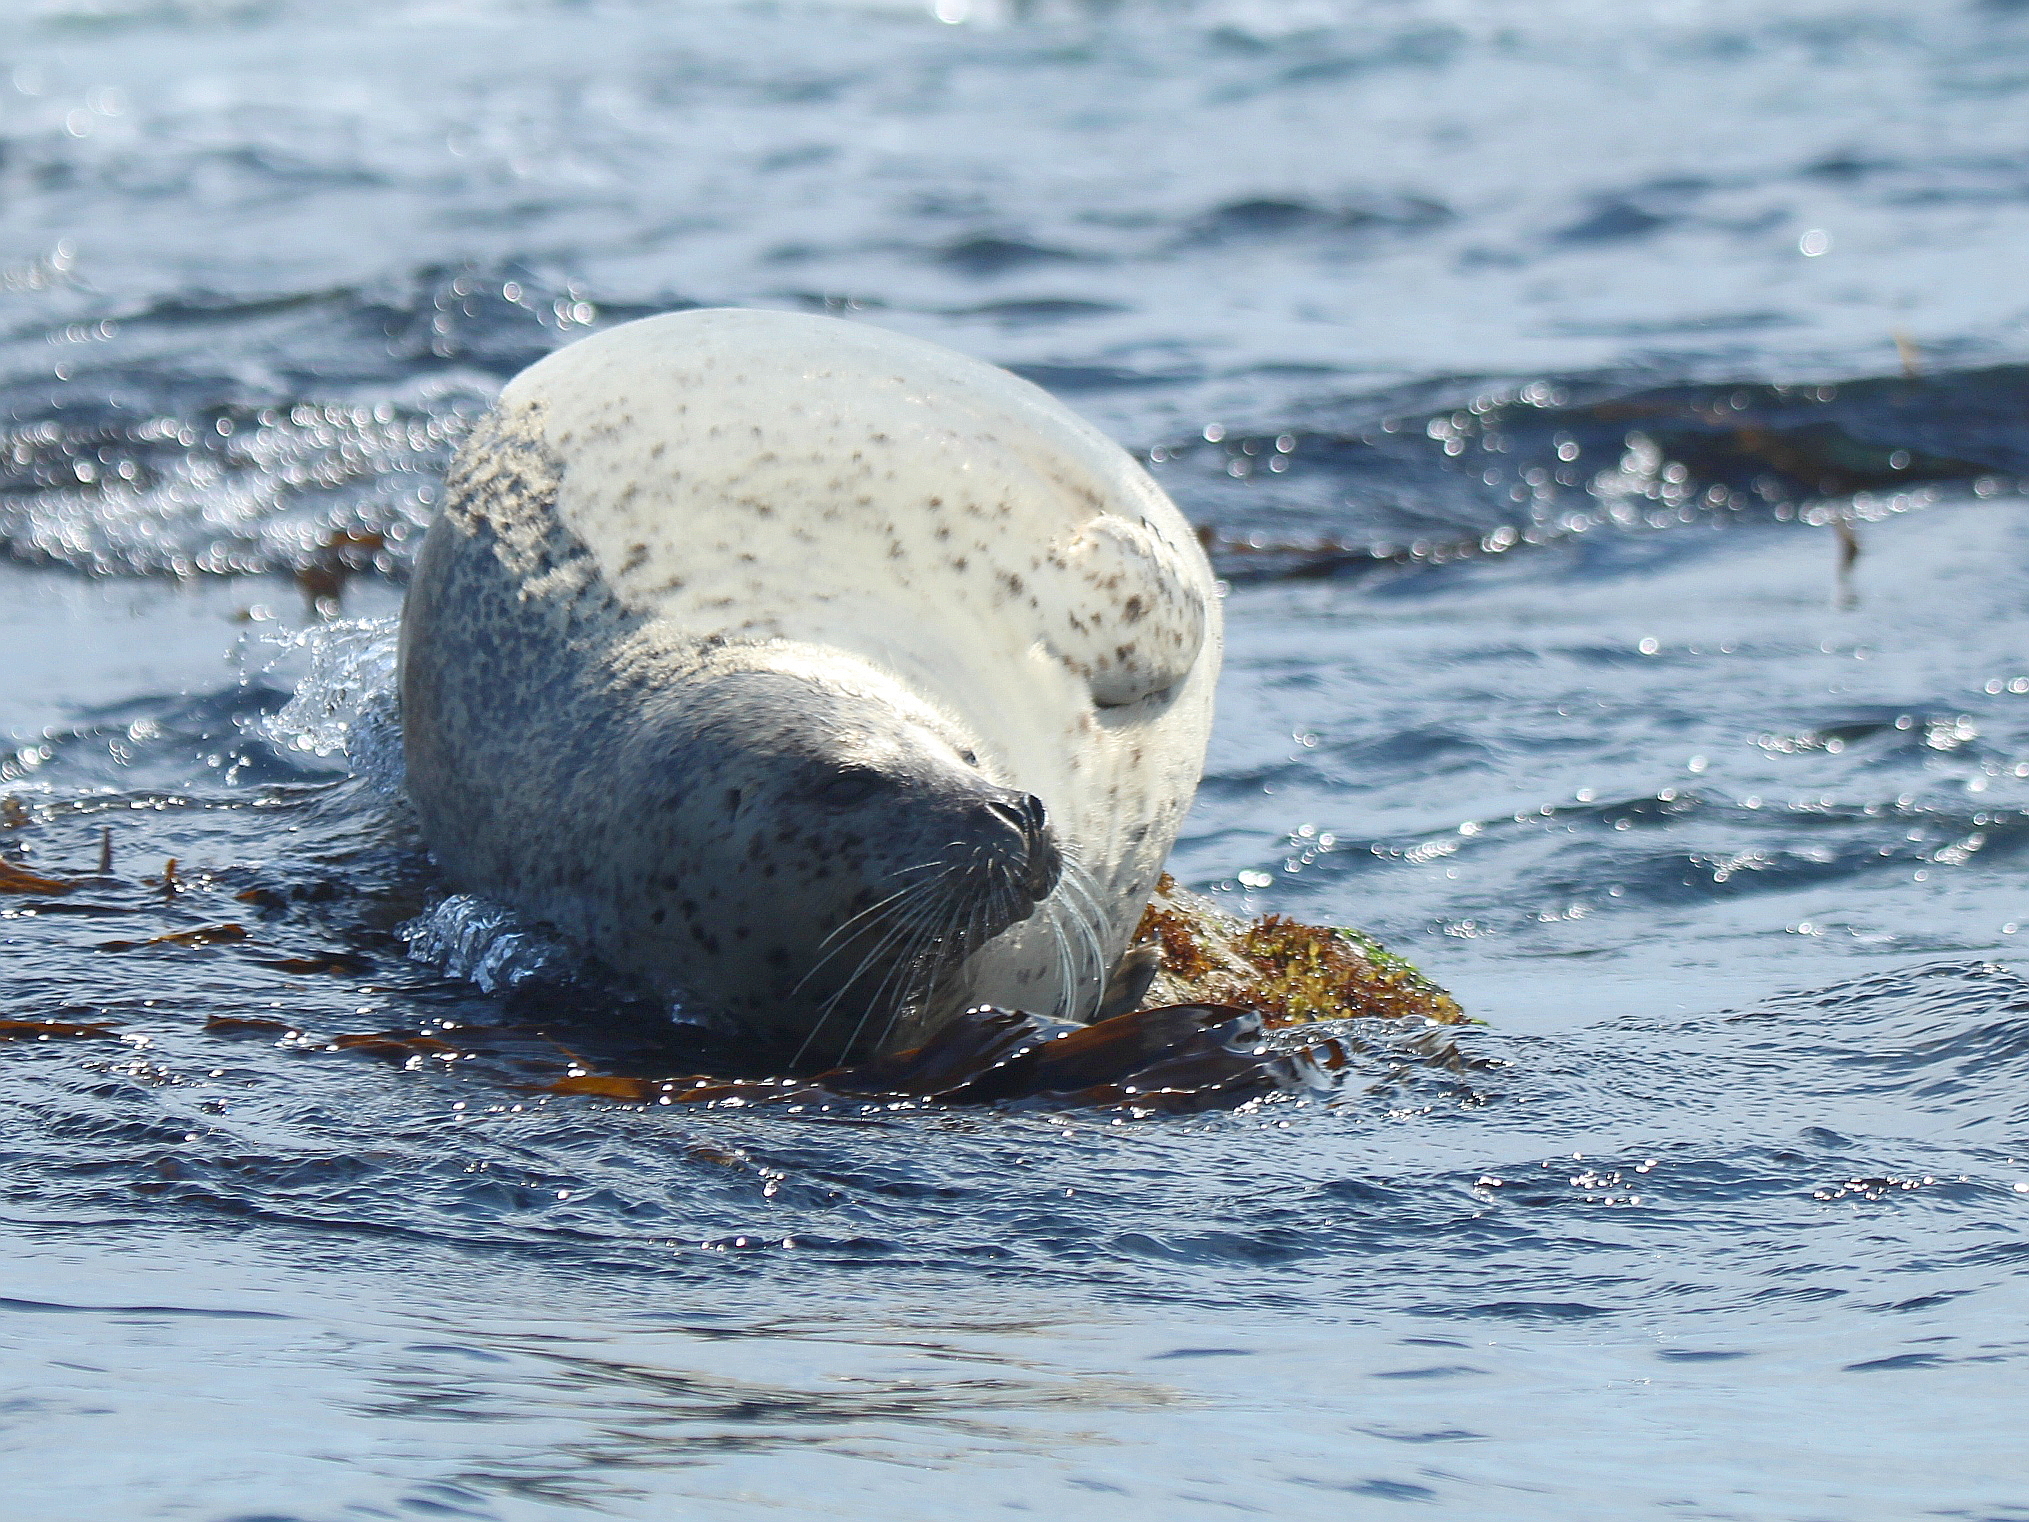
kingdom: Animalia
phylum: Chordata
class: Mammalia
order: Carnivora
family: Phocidae
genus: Phoca
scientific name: Phoca largha
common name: Spotted seal
